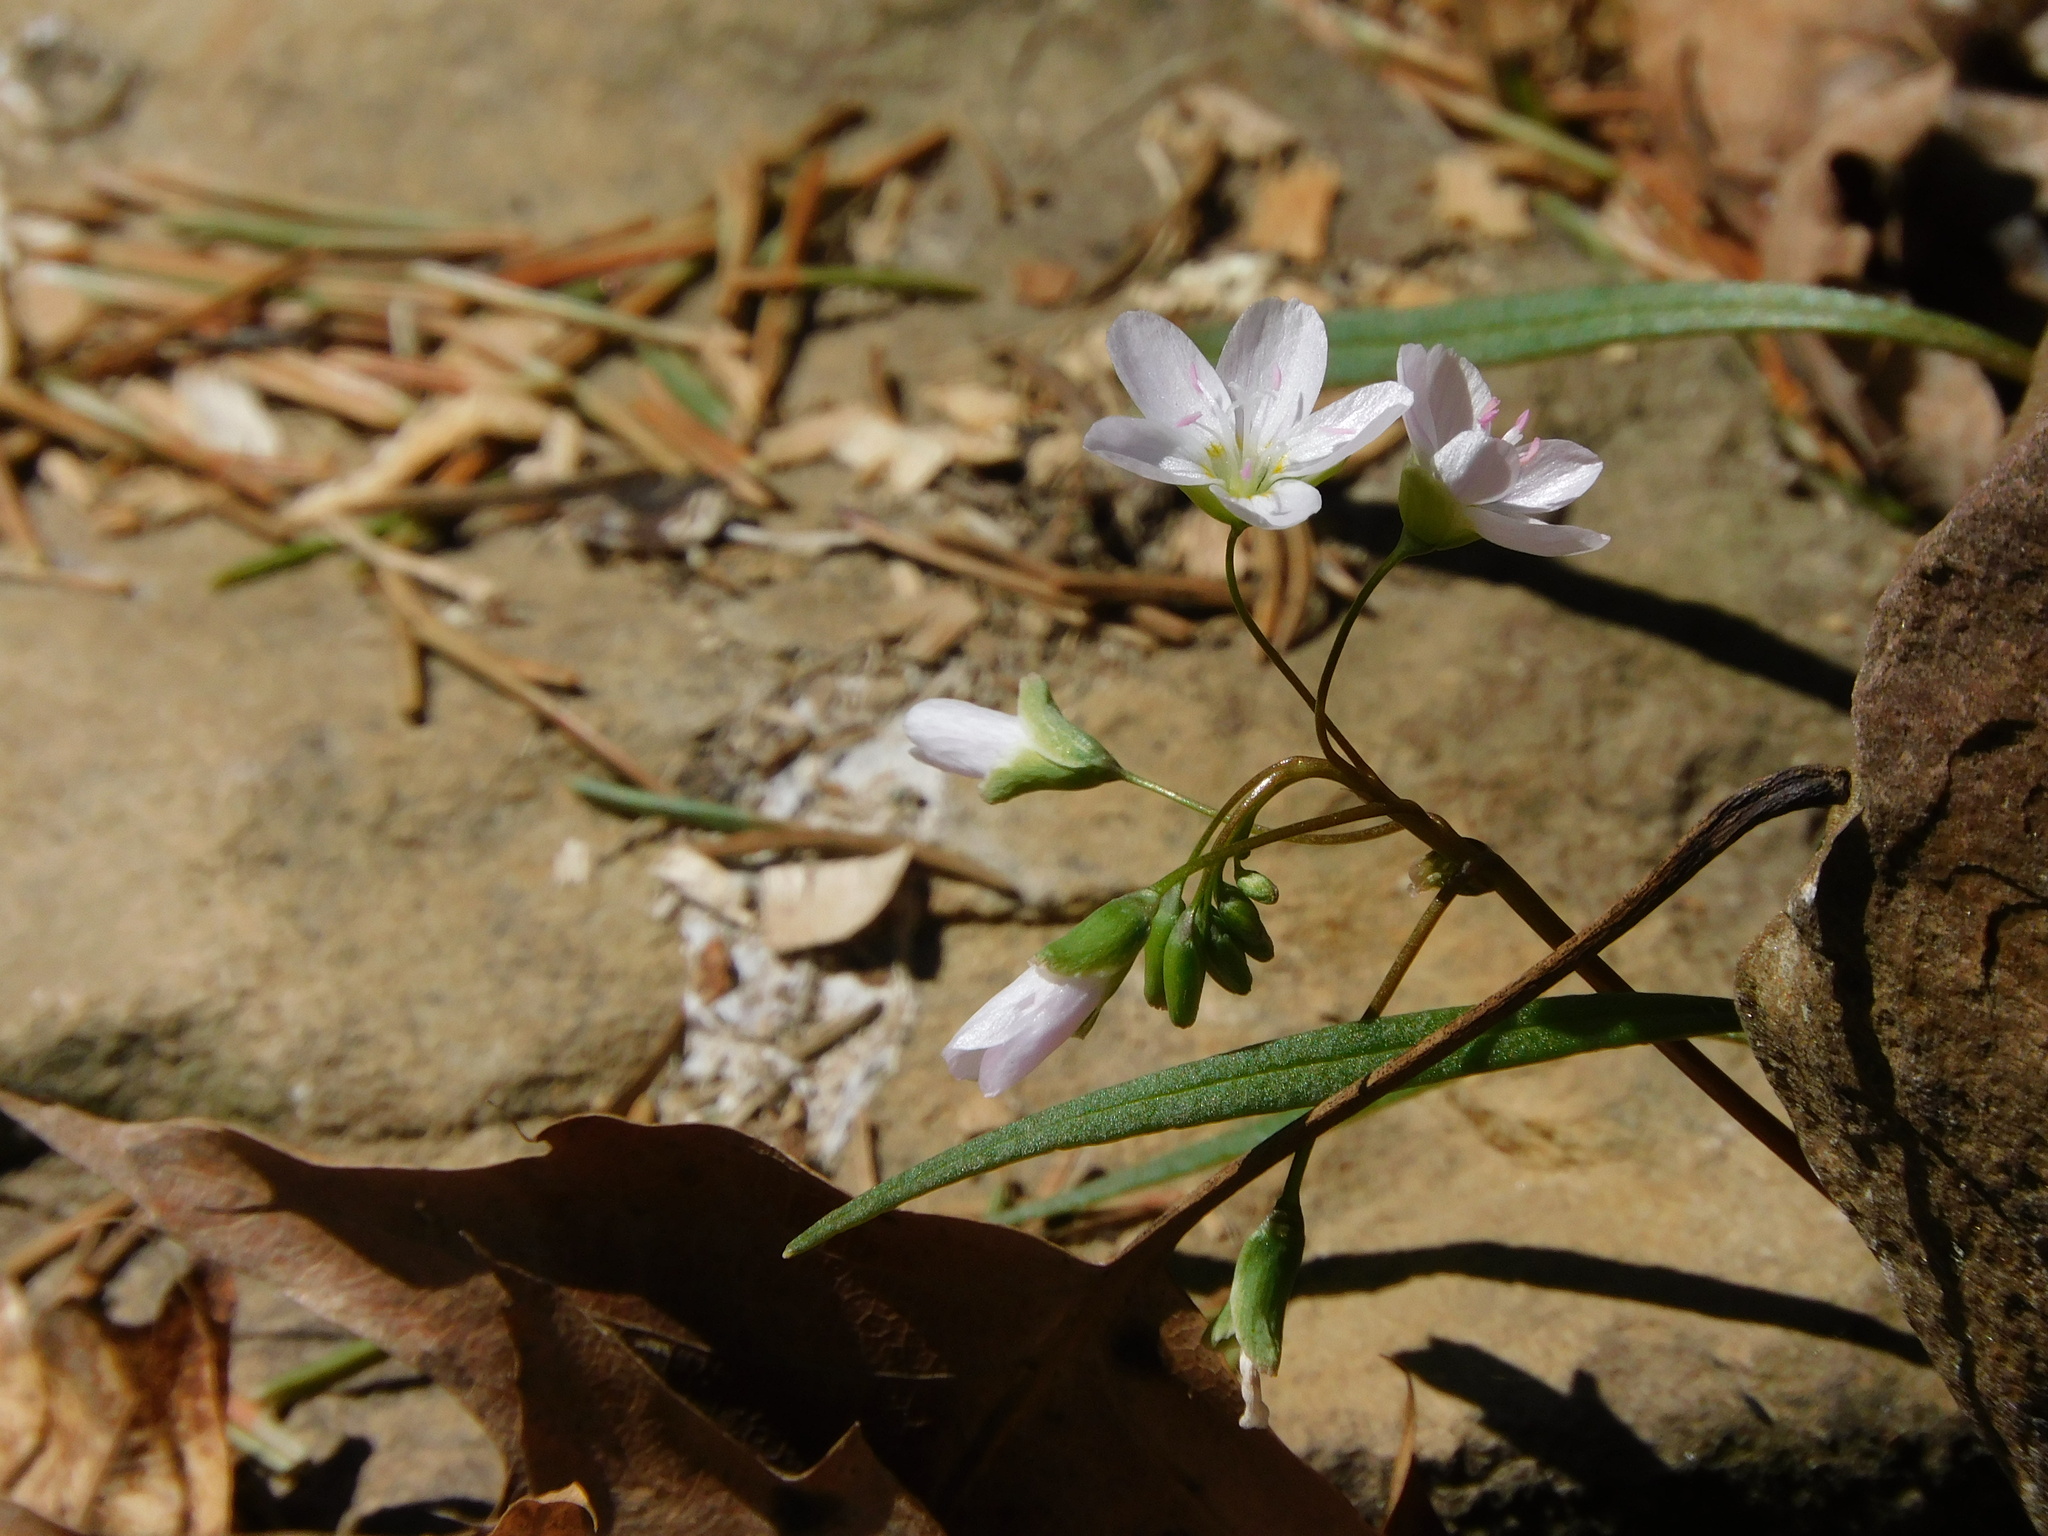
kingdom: Plantae
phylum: Tracheophyta
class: Magnoliopsida
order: Caryophyllales
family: Montiaceae
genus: Claytonia
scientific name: Claytonia virginica
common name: Virginia springbeauty
